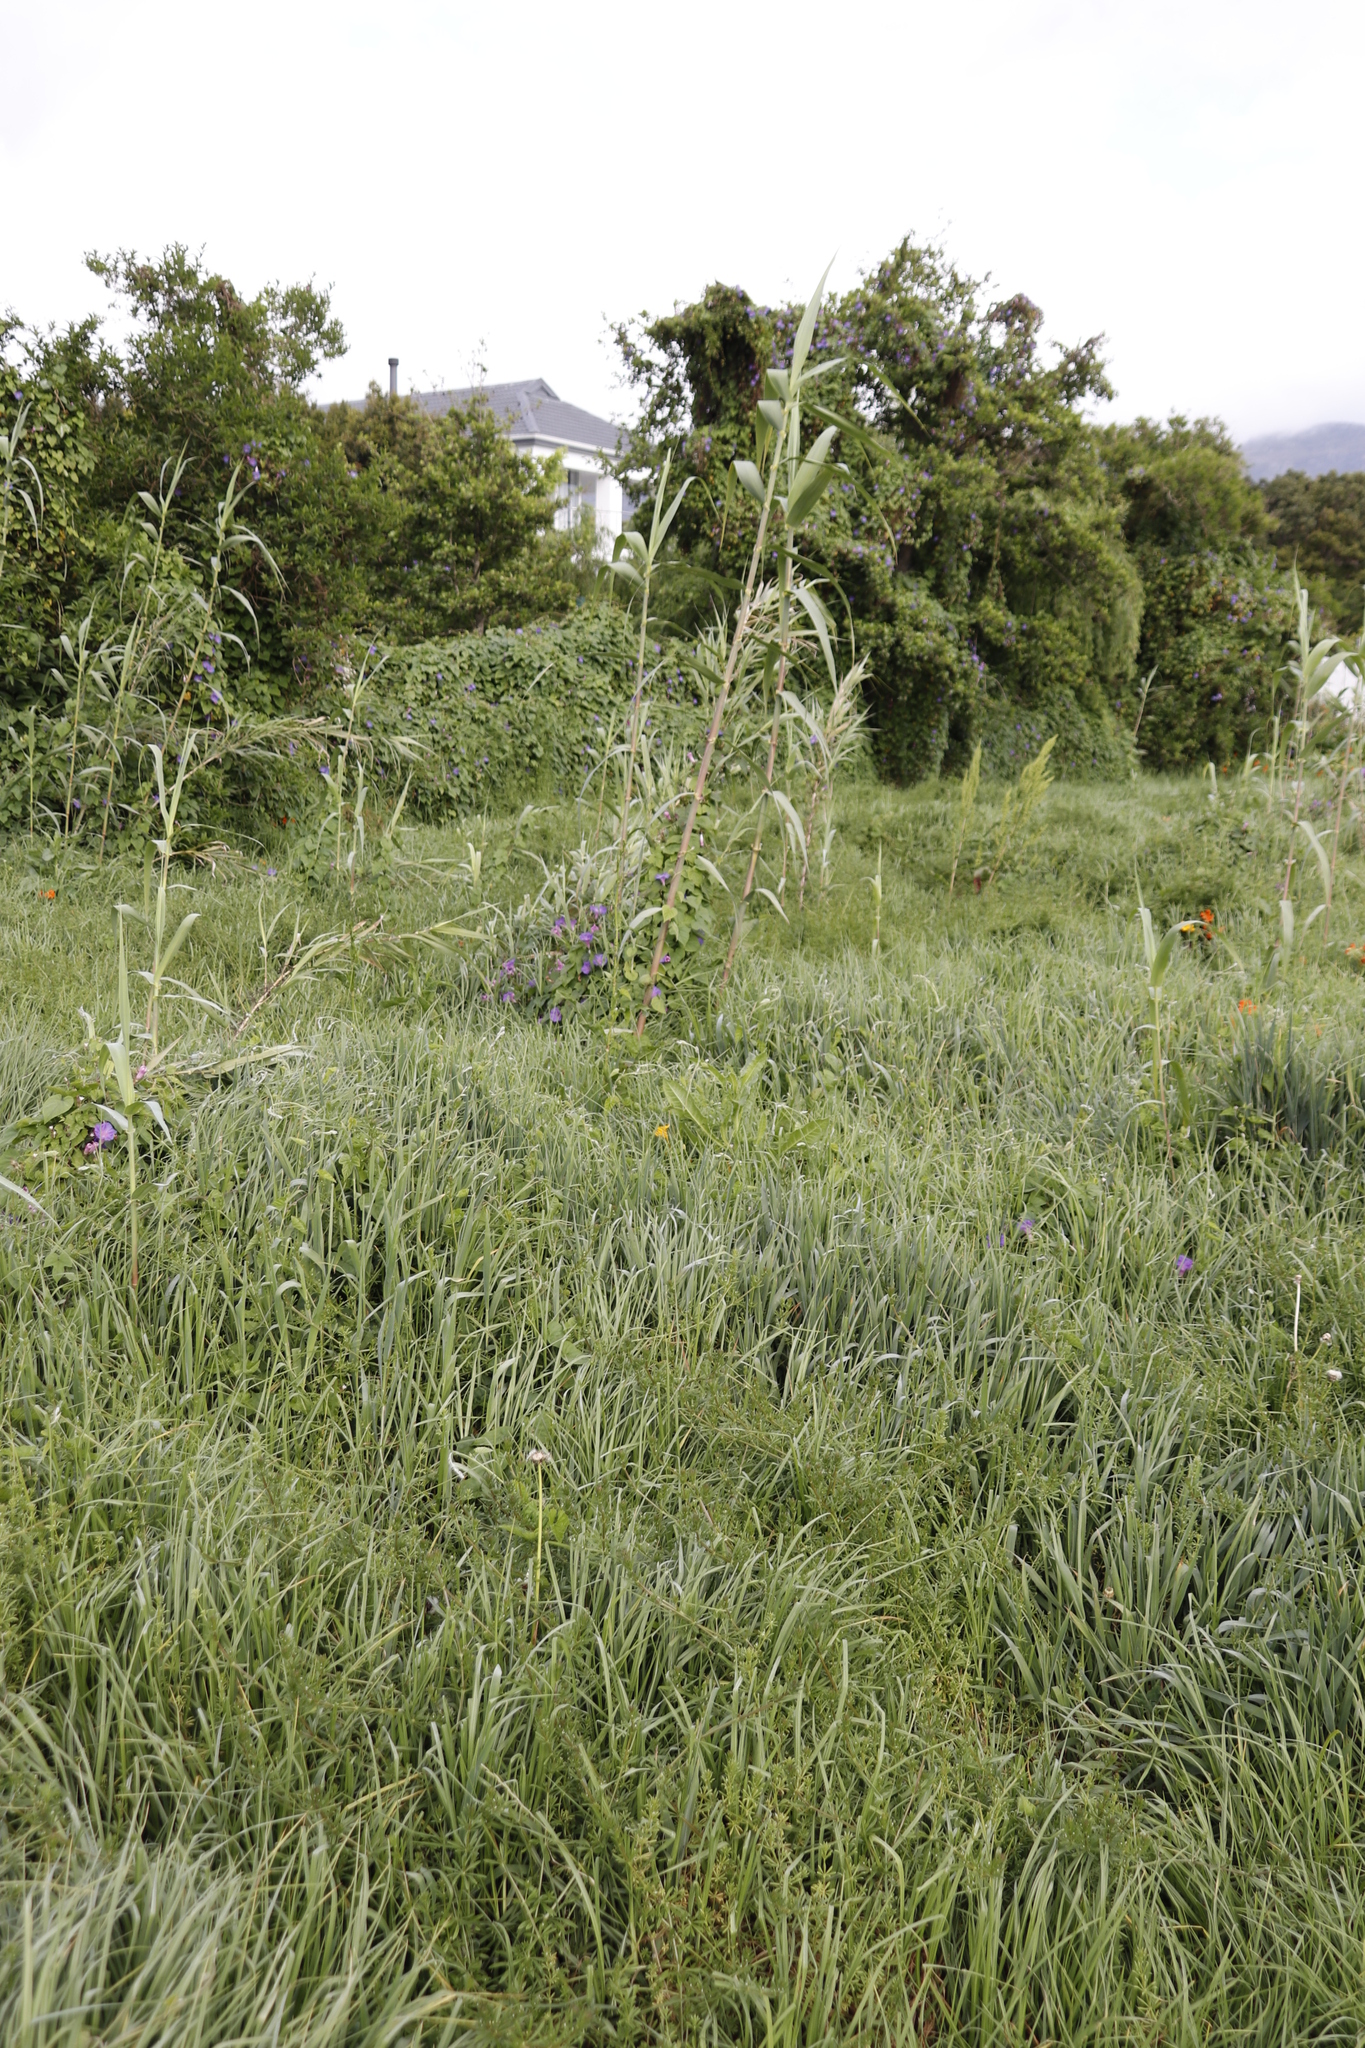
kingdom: Plantae
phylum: Tracheophyta
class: Liliopsida
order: Poales
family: Poaceae
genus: Arundo
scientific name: Arundo donax
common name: Giant reed
